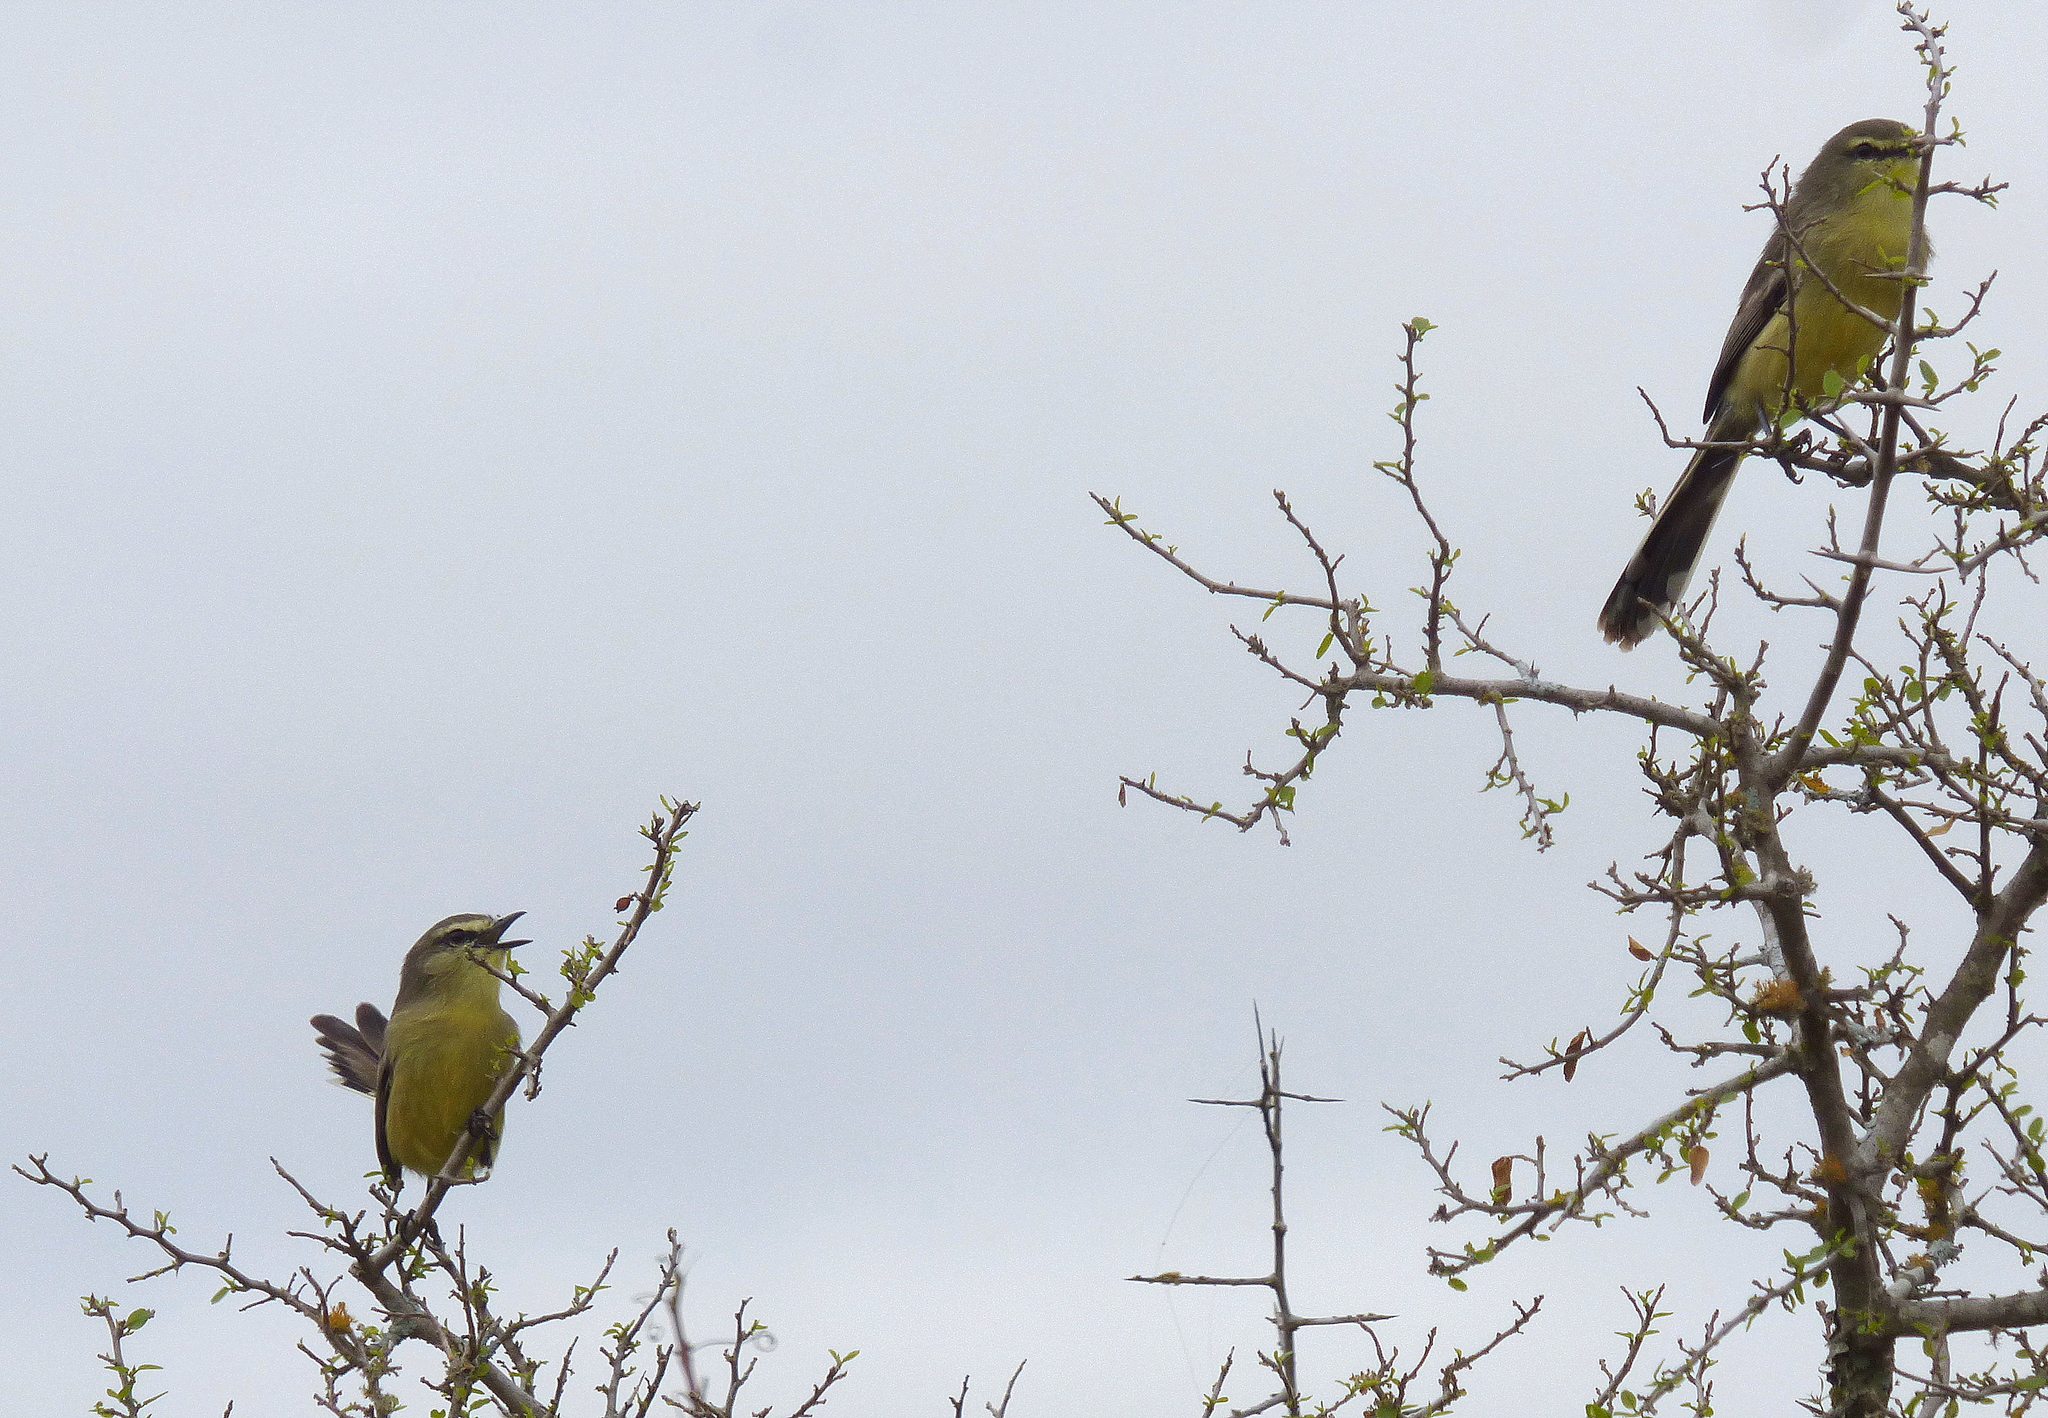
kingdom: Animalia
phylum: Chordata
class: Aves
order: Passeriformes
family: Tyrannidae
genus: Stigmatura
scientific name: Stigmatura budytoides
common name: Greater wagtail-tyrant
